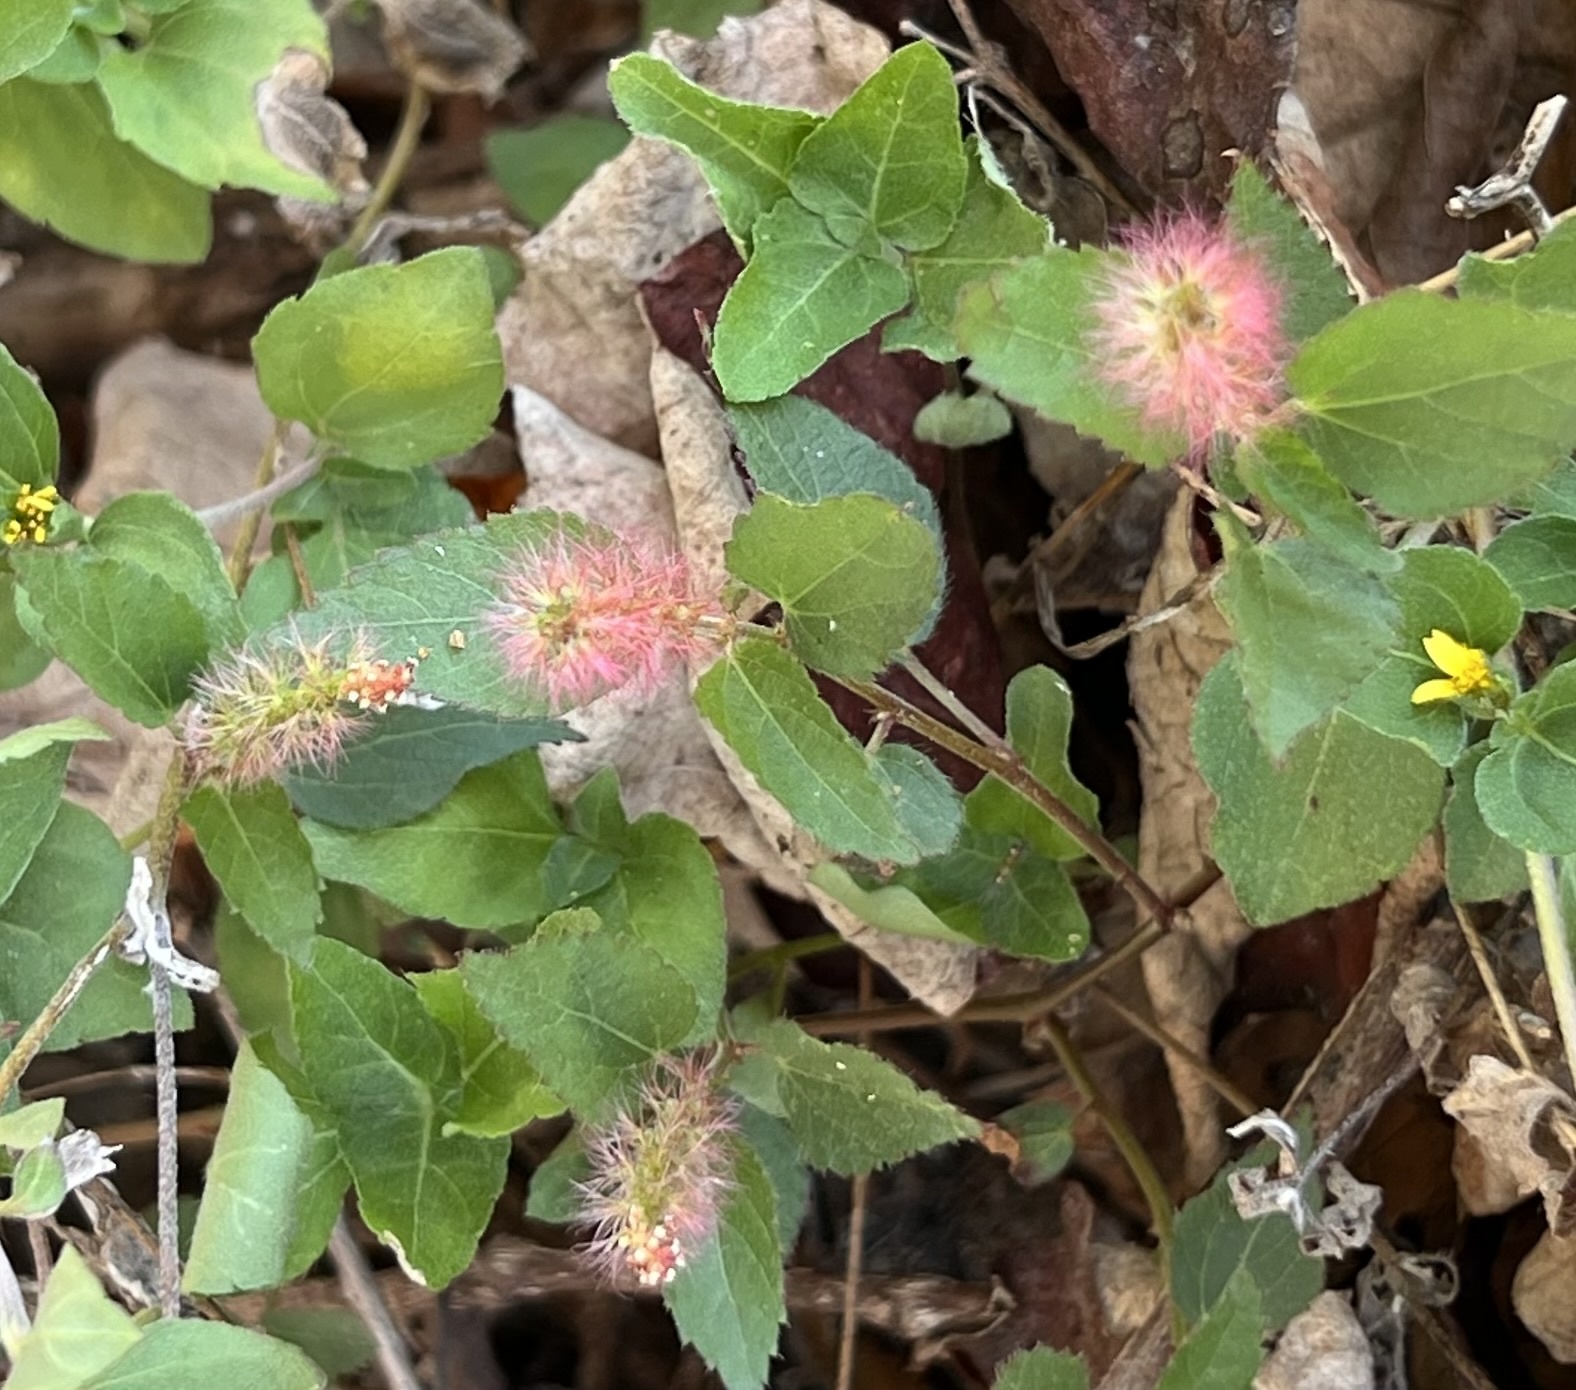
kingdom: Plantae
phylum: Tracheophyta
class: Magnoliopsida
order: Malpighiales
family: Euphorbiaceae
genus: Acalypha
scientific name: Acalypha phleoides
